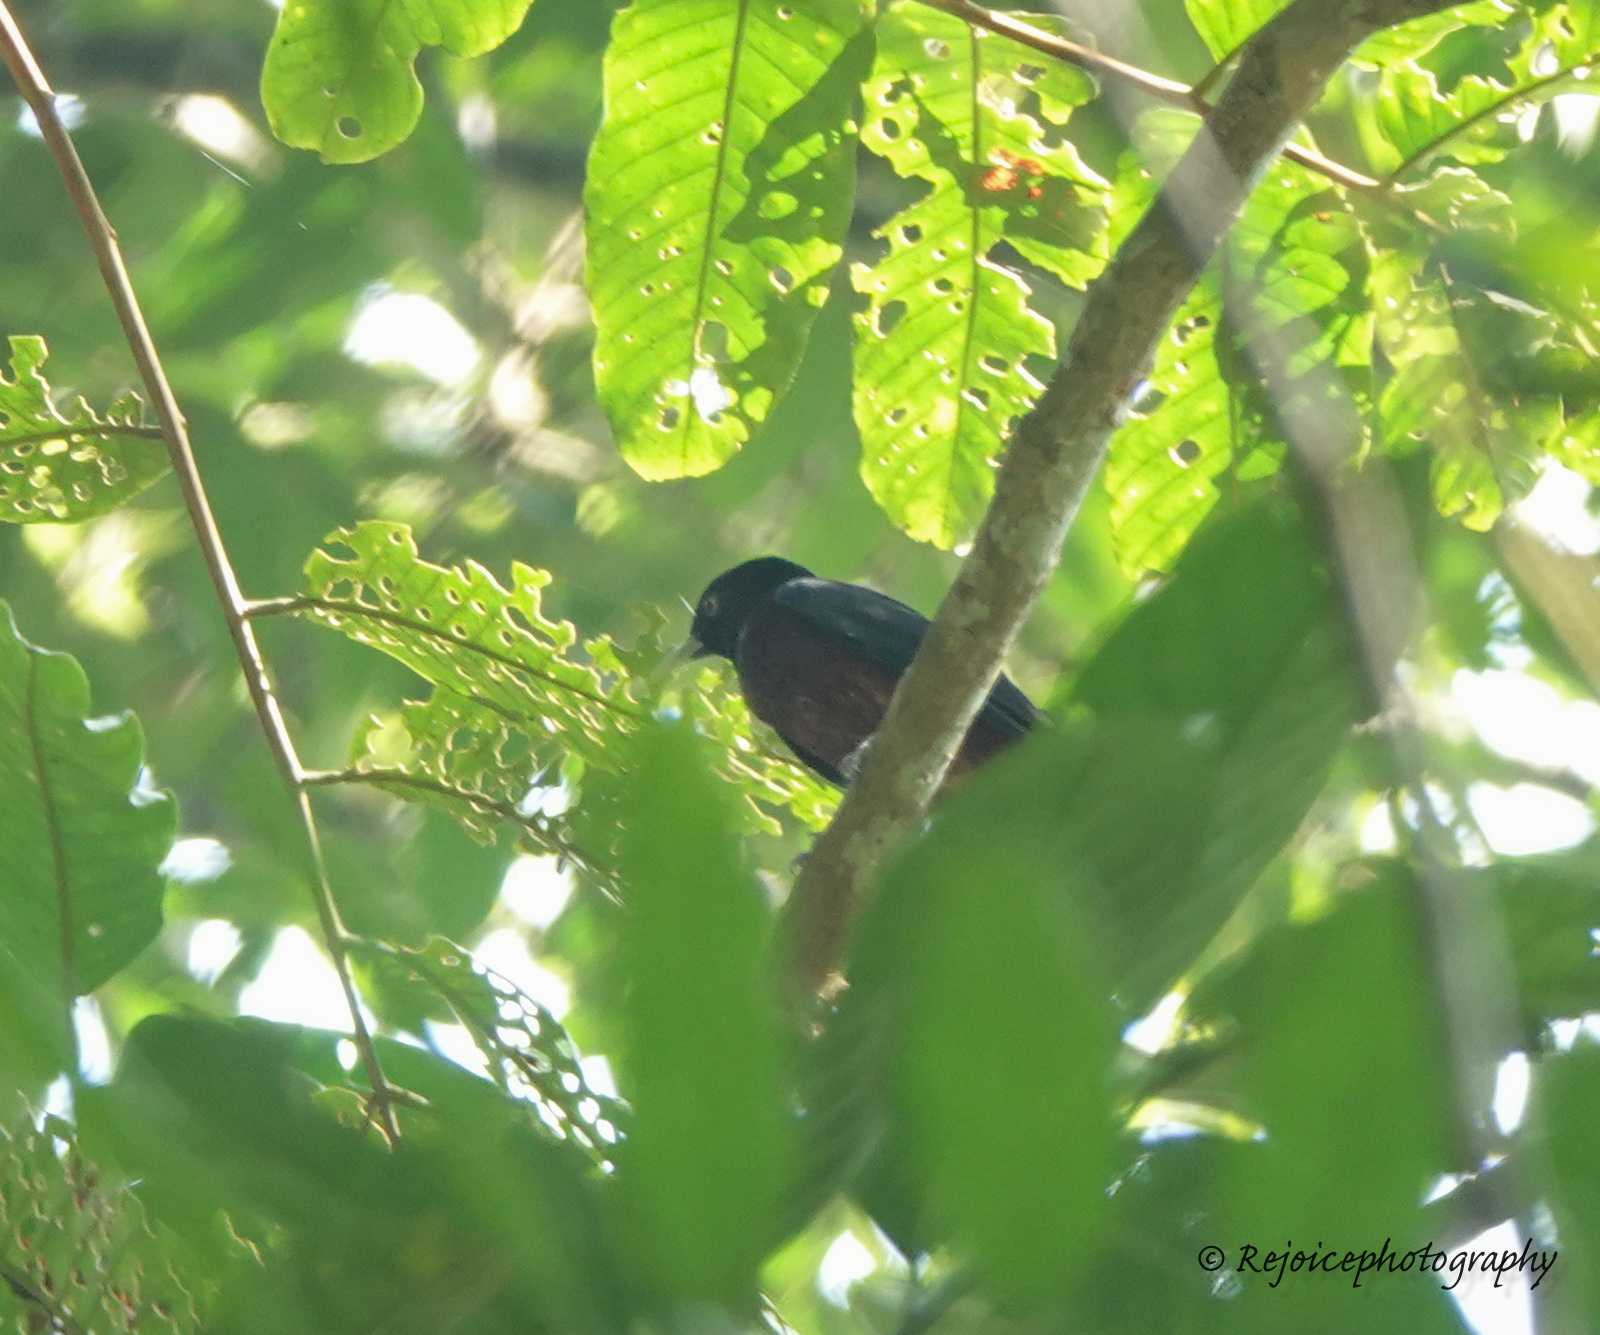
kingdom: Animalia
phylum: Chordata
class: Aves
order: Passeriformes
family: Oriolidae
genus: Oriolus
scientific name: Oriolus traillii
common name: Maroon oriole
